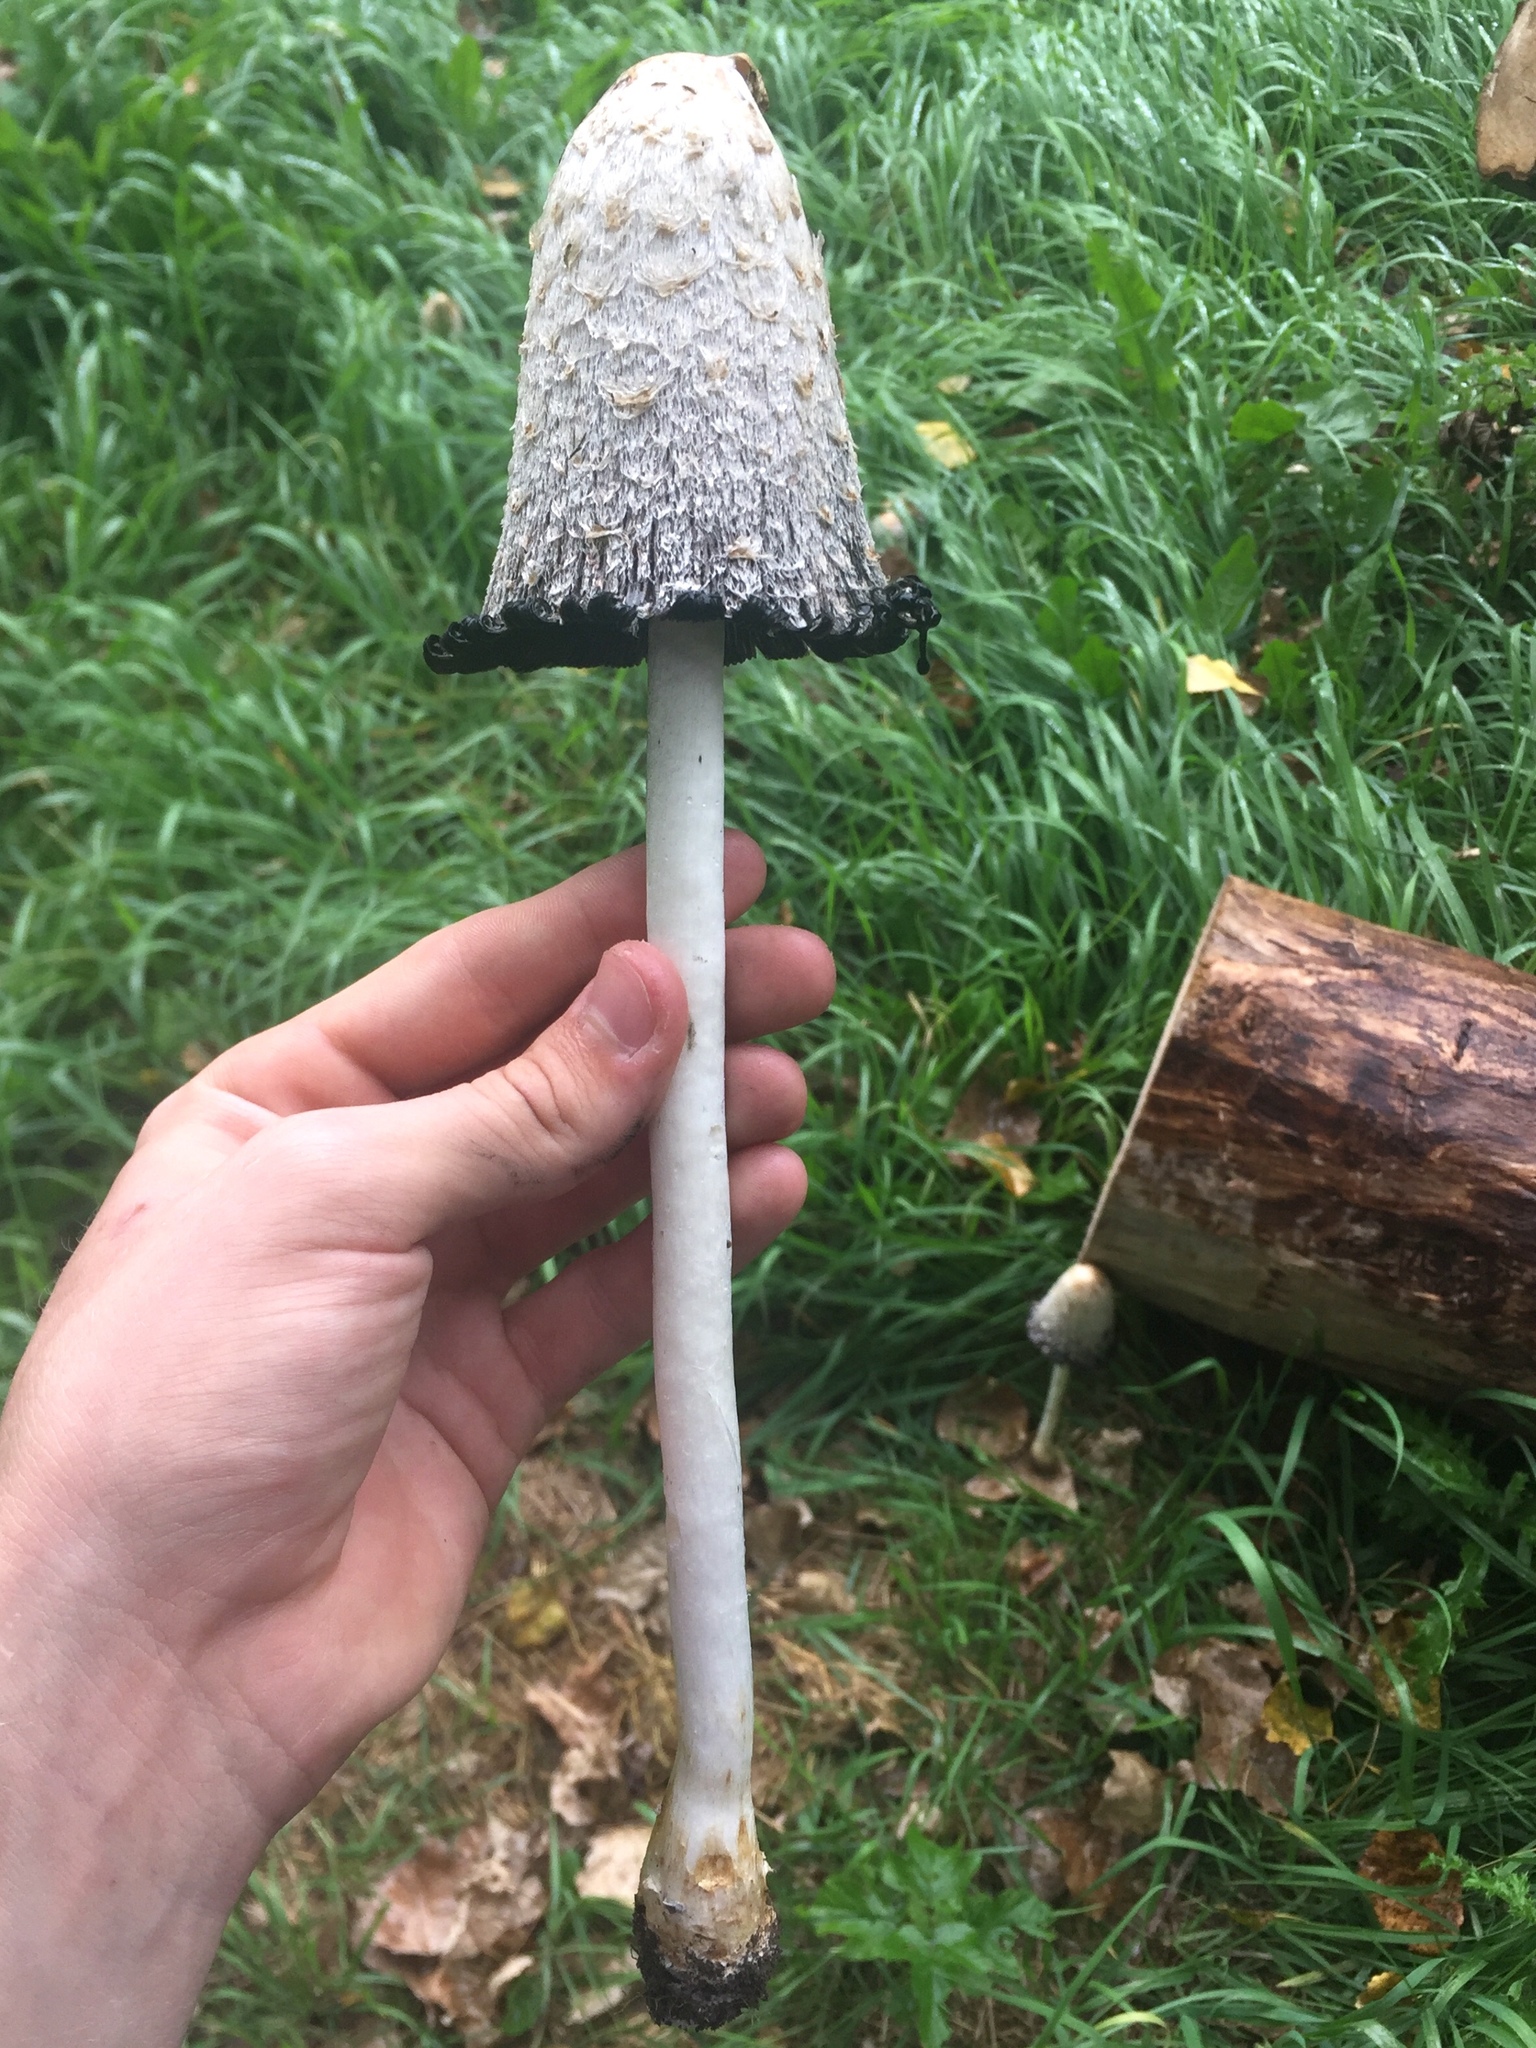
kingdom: Fungi
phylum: Basidiomycota
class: Agaricomycetes
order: Agaricales
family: Agaricaceae
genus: Coprinus
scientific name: Coprinus comatus
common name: Lawyer's wig
